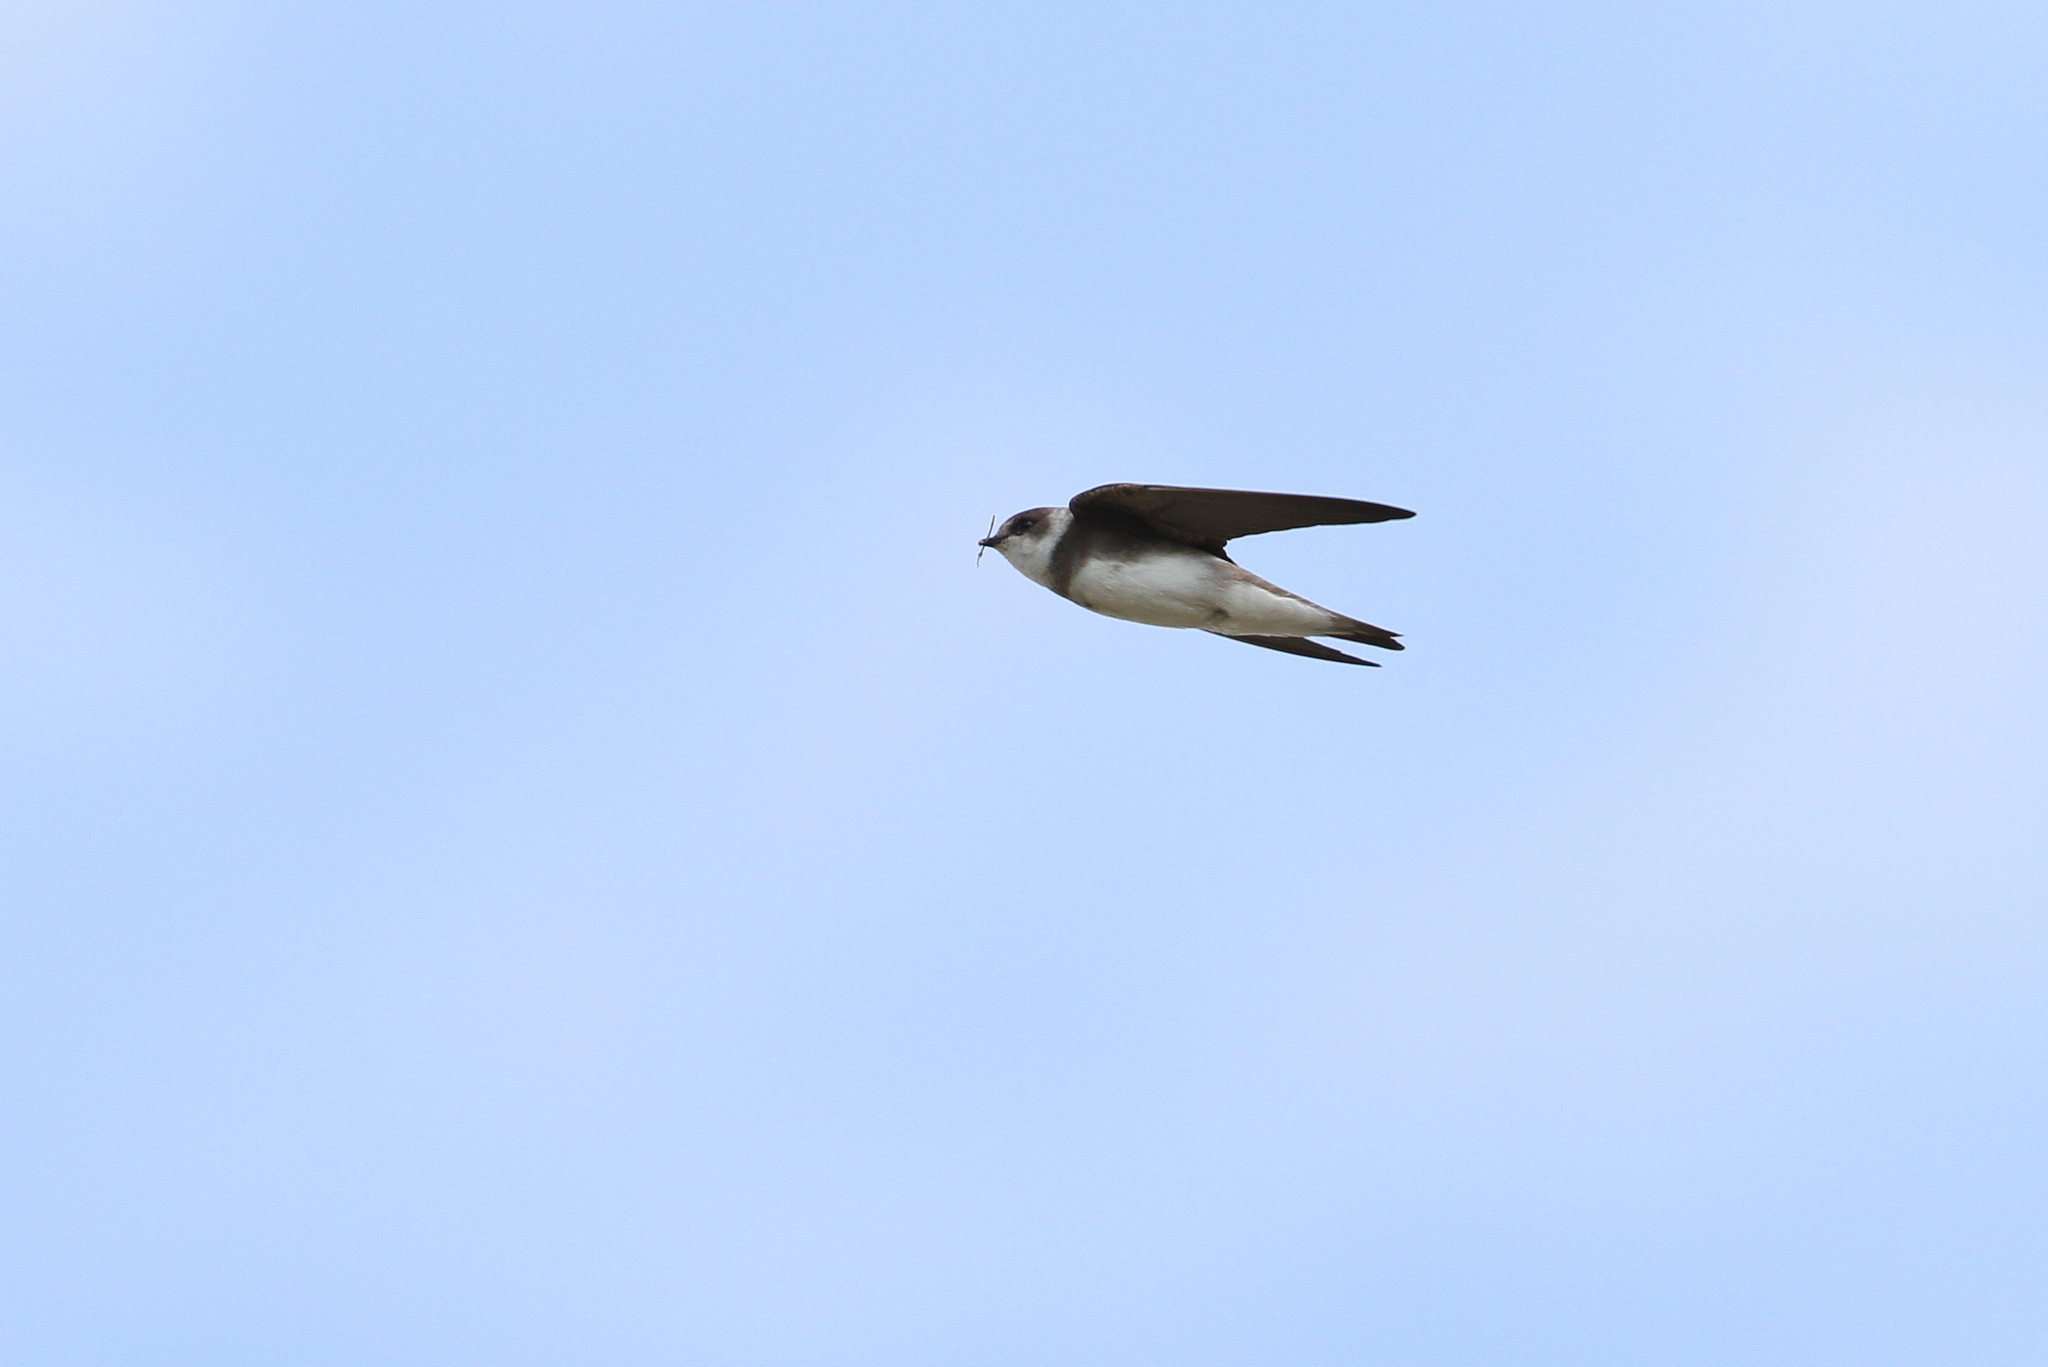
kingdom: Animalia
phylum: Chordata
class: Aves
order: Passeriformes
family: Hirundinidae
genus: Riparia
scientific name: Riparia riparia
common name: Sand martin
